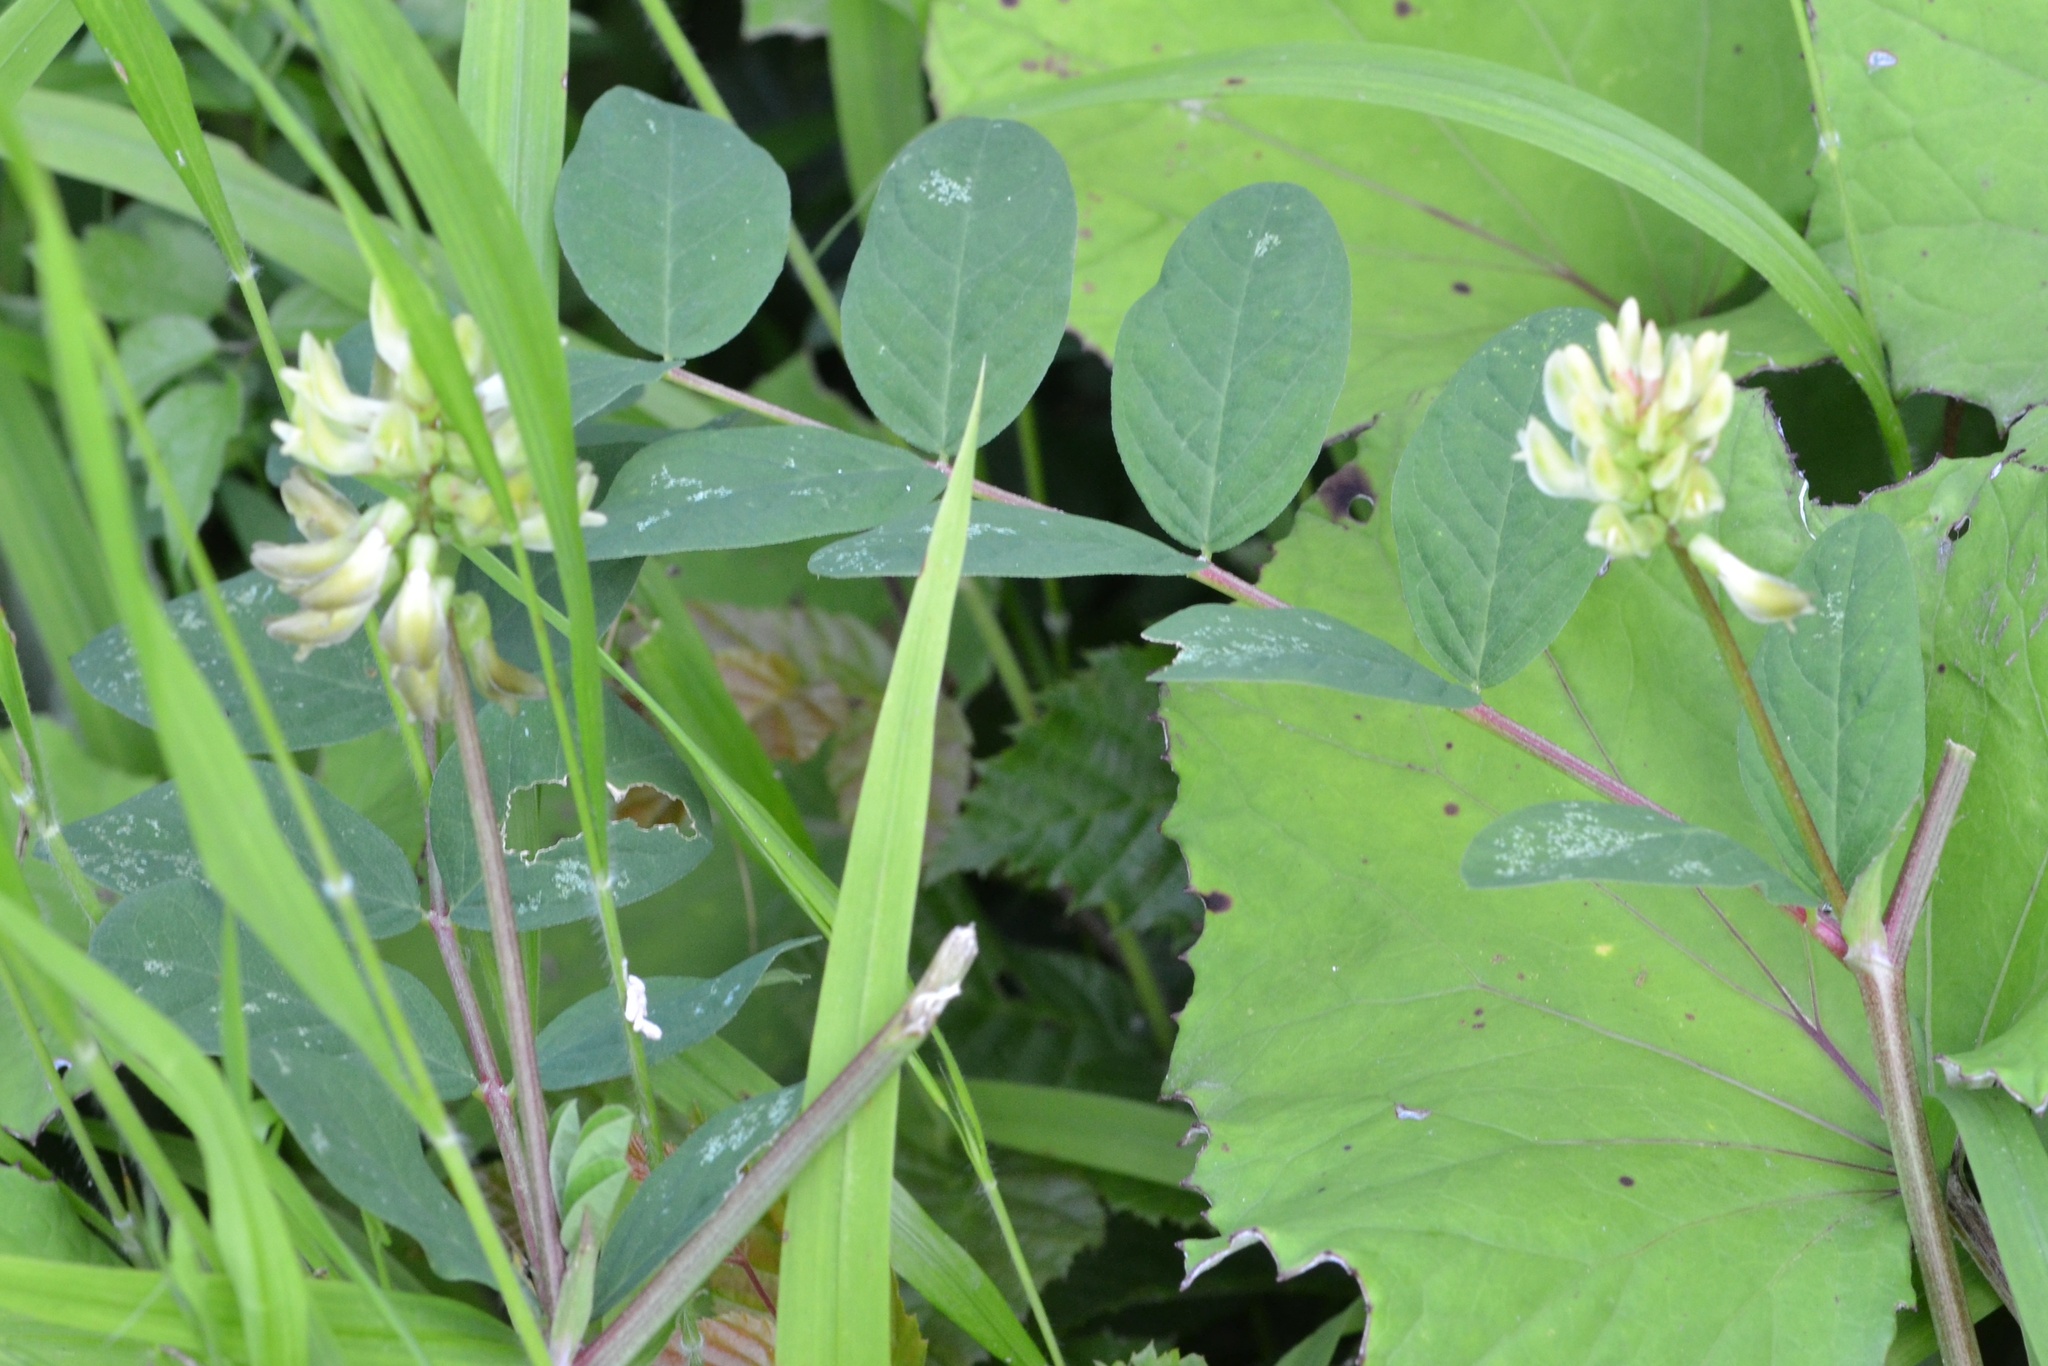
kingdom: Plantae
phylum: Tracheophyta
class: Magnoliopsida
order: Fabales
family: Fabaceae
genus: Astragalus
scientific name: Astragalus glycyphyllos
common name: Wild liquorice
